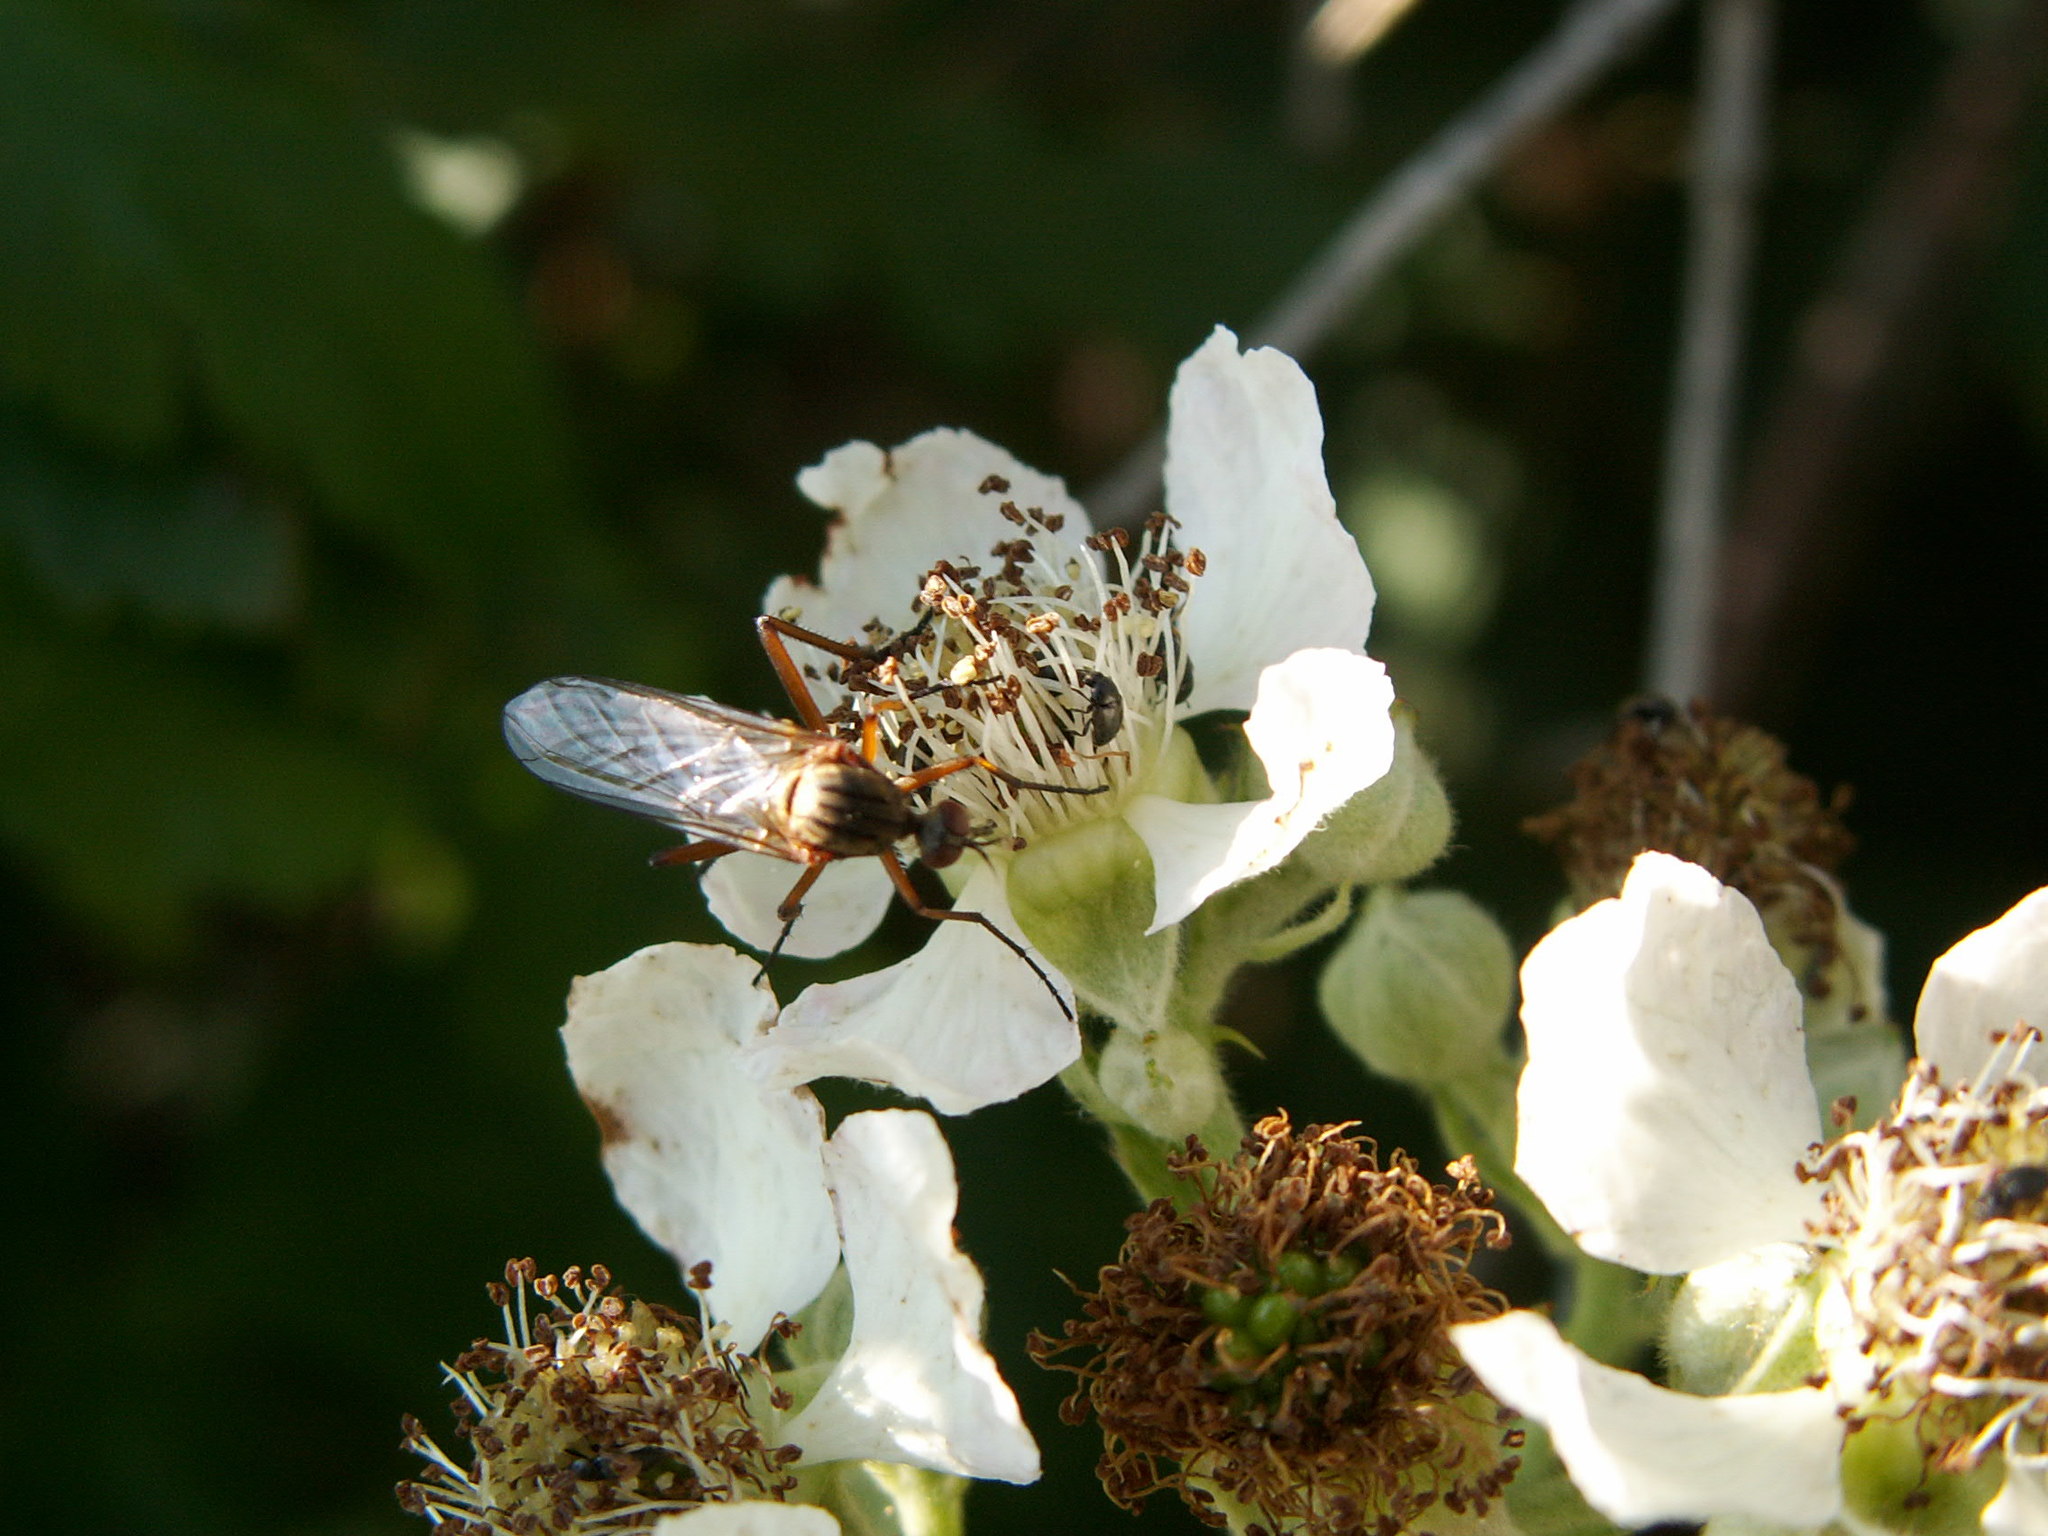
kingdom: Animalia
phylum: Arthropoda
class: Insecta
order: Diptera
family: Empididae
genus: Empis
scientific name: Empis livida
